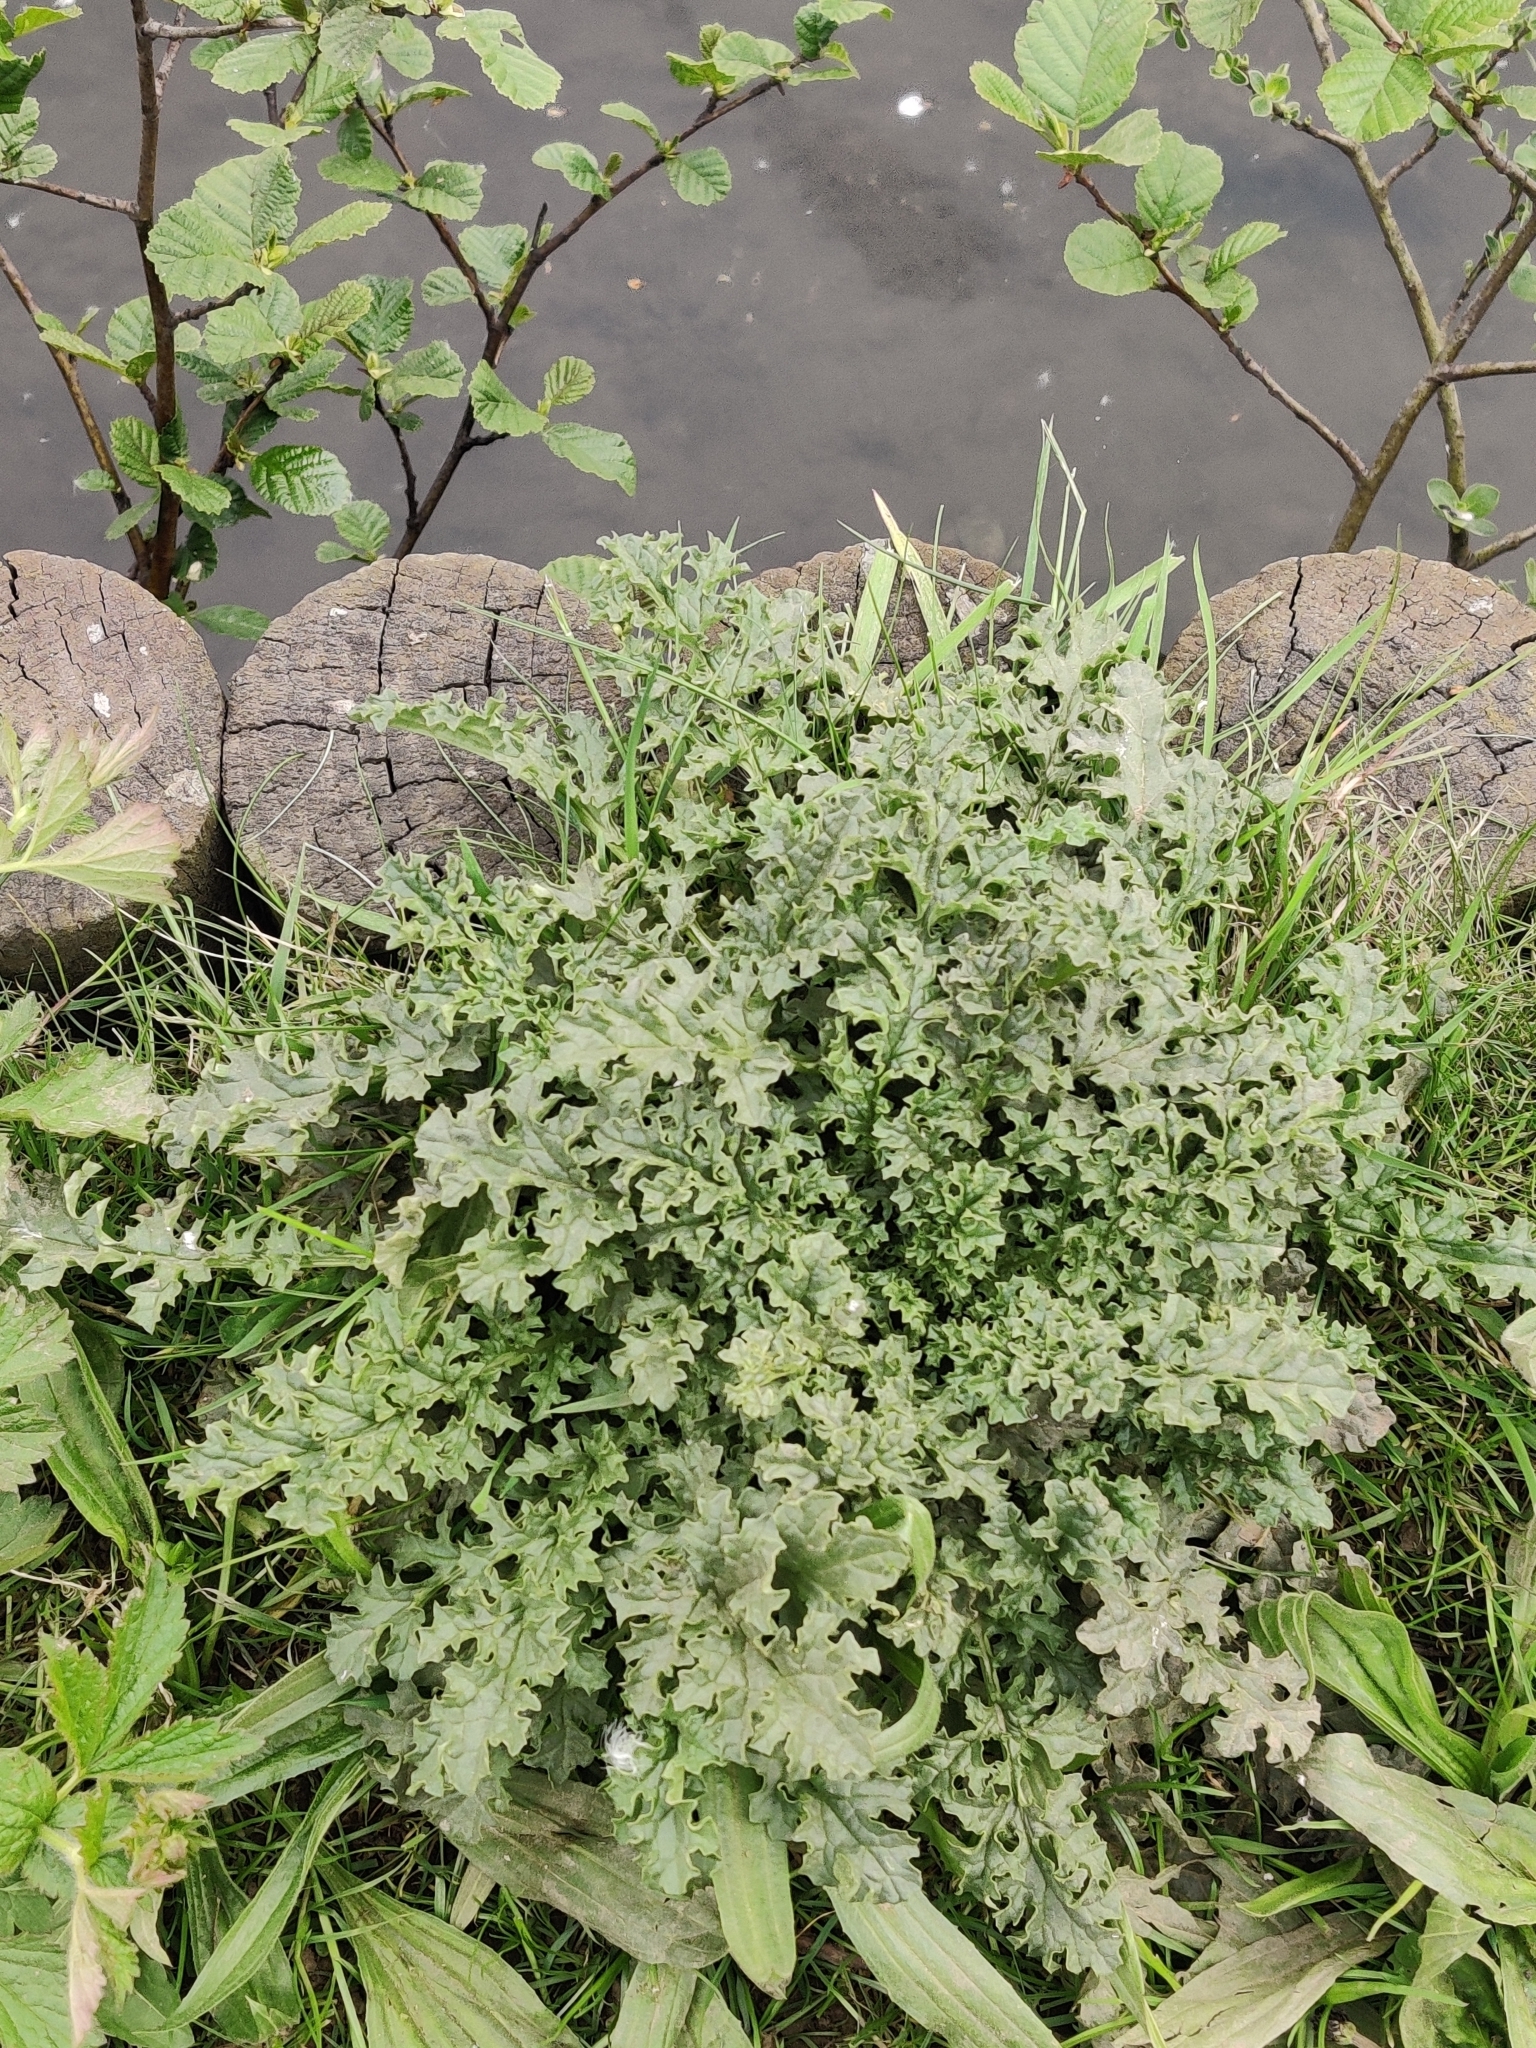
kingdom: Plantae
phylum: Tracheophyta
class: Magnoliopsida
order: Asterales
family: Asteraceae
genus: Jacobaea
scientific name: Jacobaea vulgaris
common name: Stinking willie
